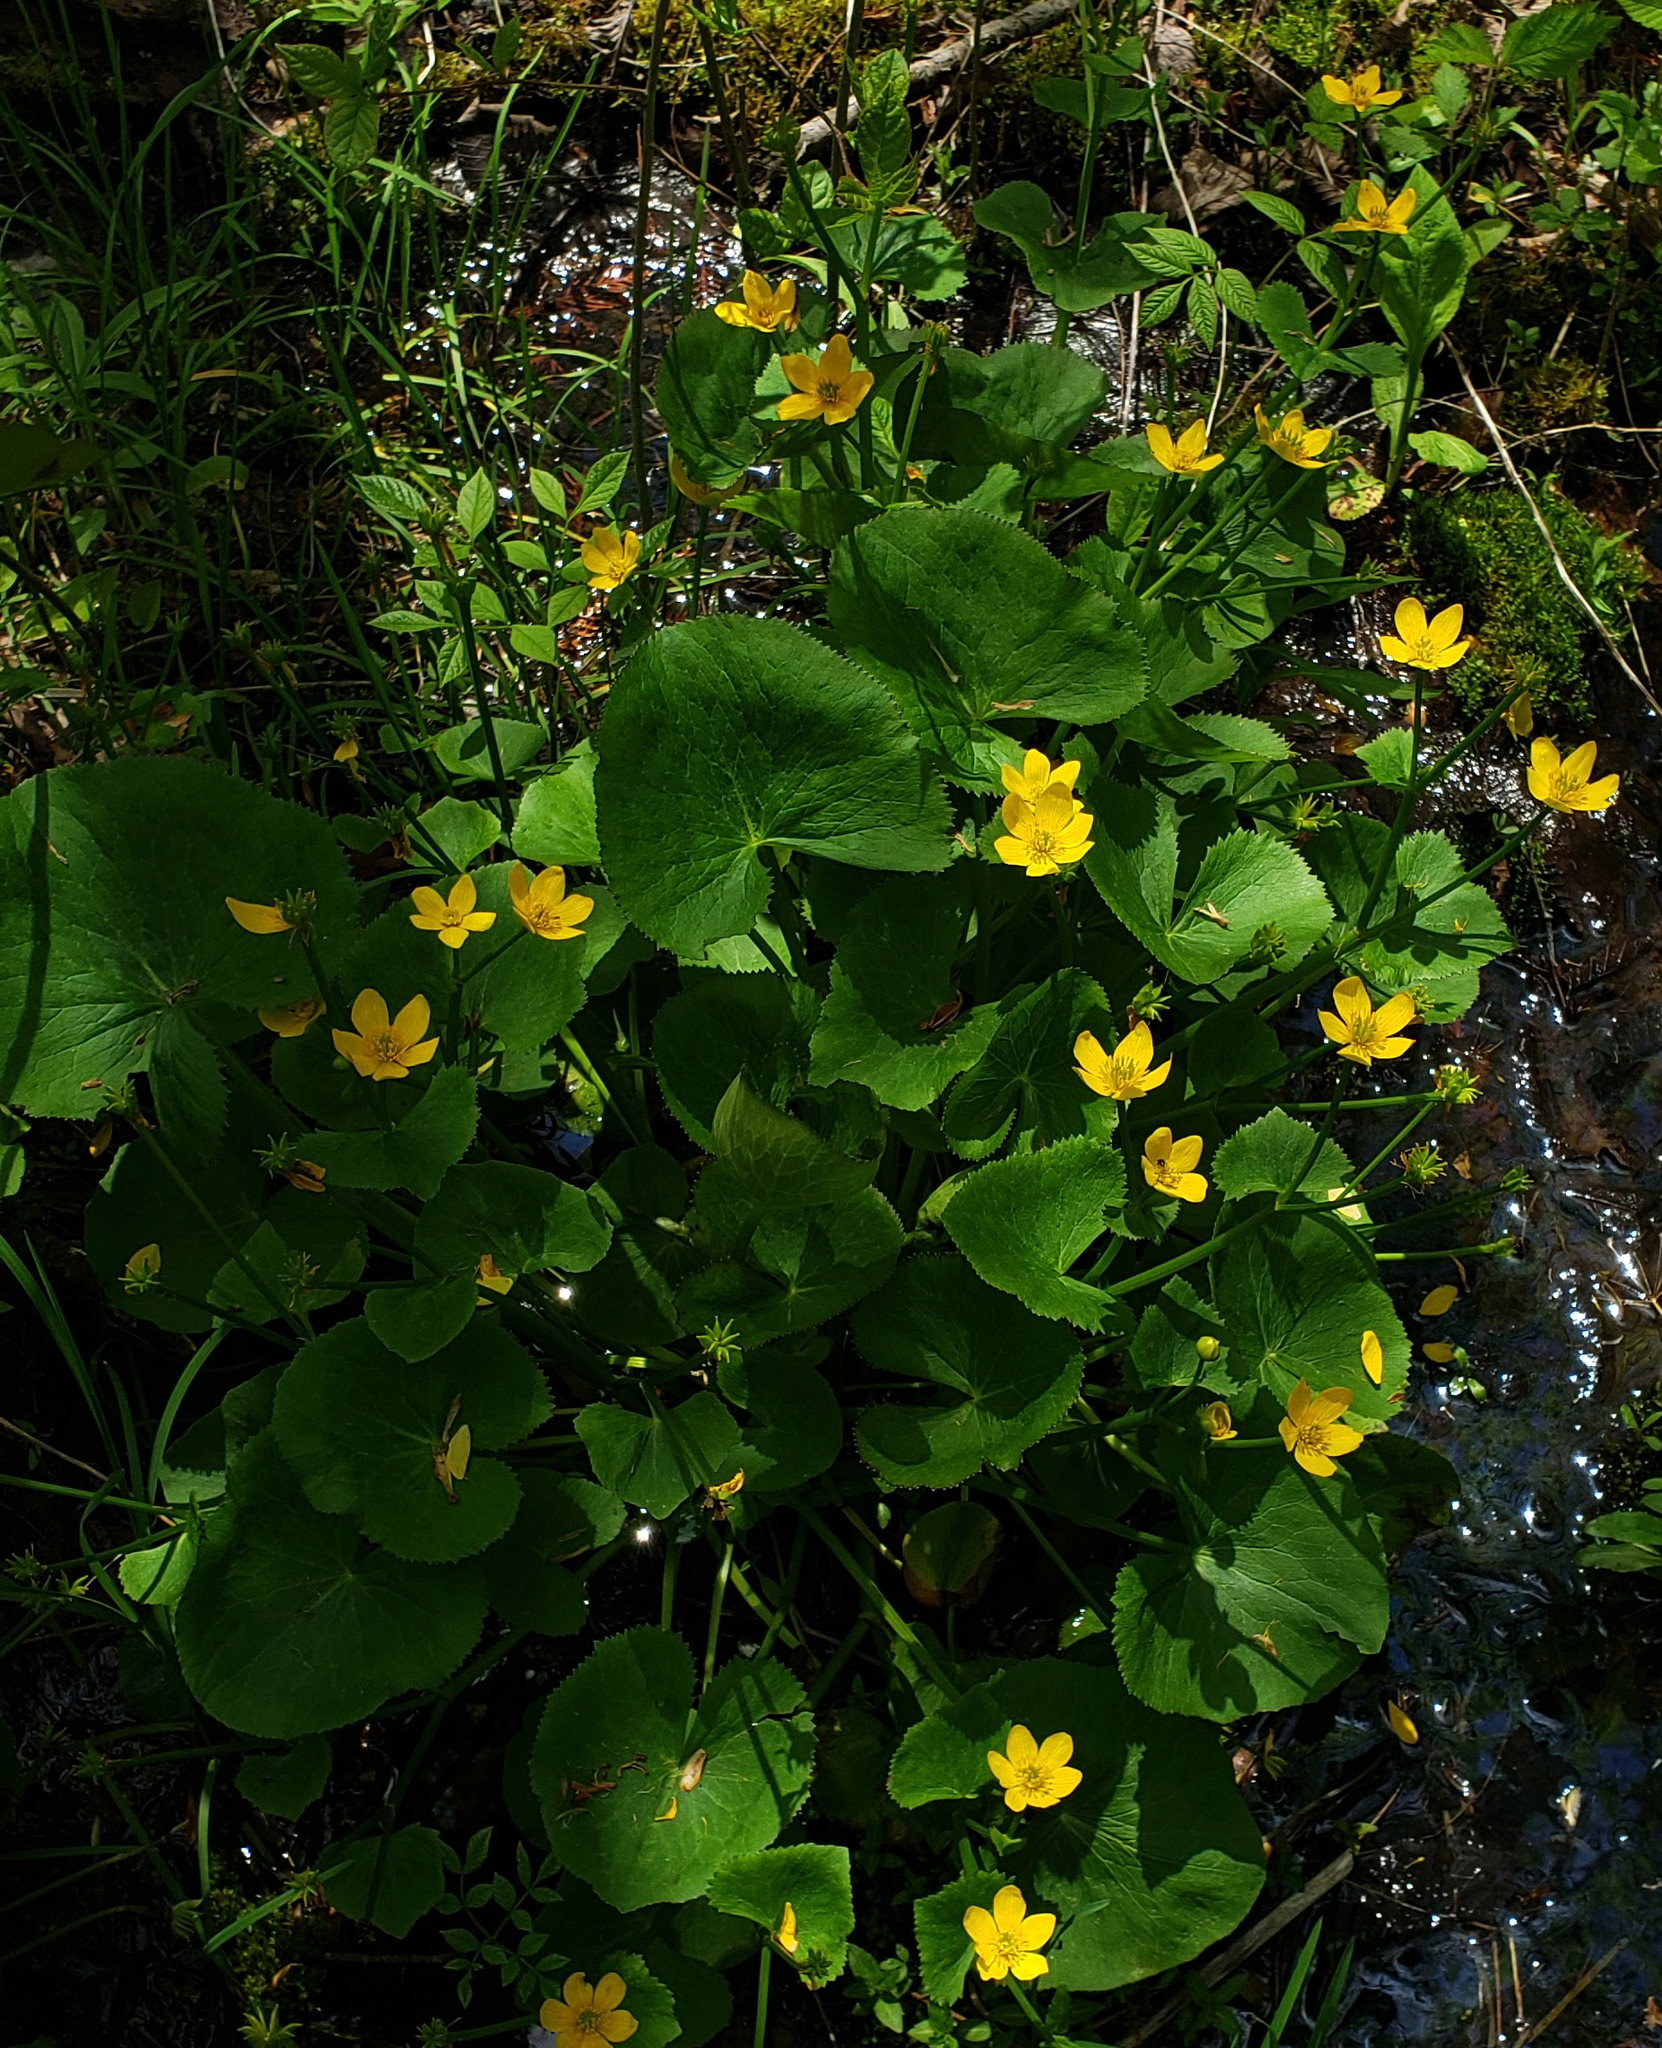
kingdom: Plantae
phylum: Tracheophyta
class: Magnoliopsida
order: Ranunculales
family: Ranunculaceae
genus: Caltha
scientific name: Caltha palustris
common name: Marsh marigold
